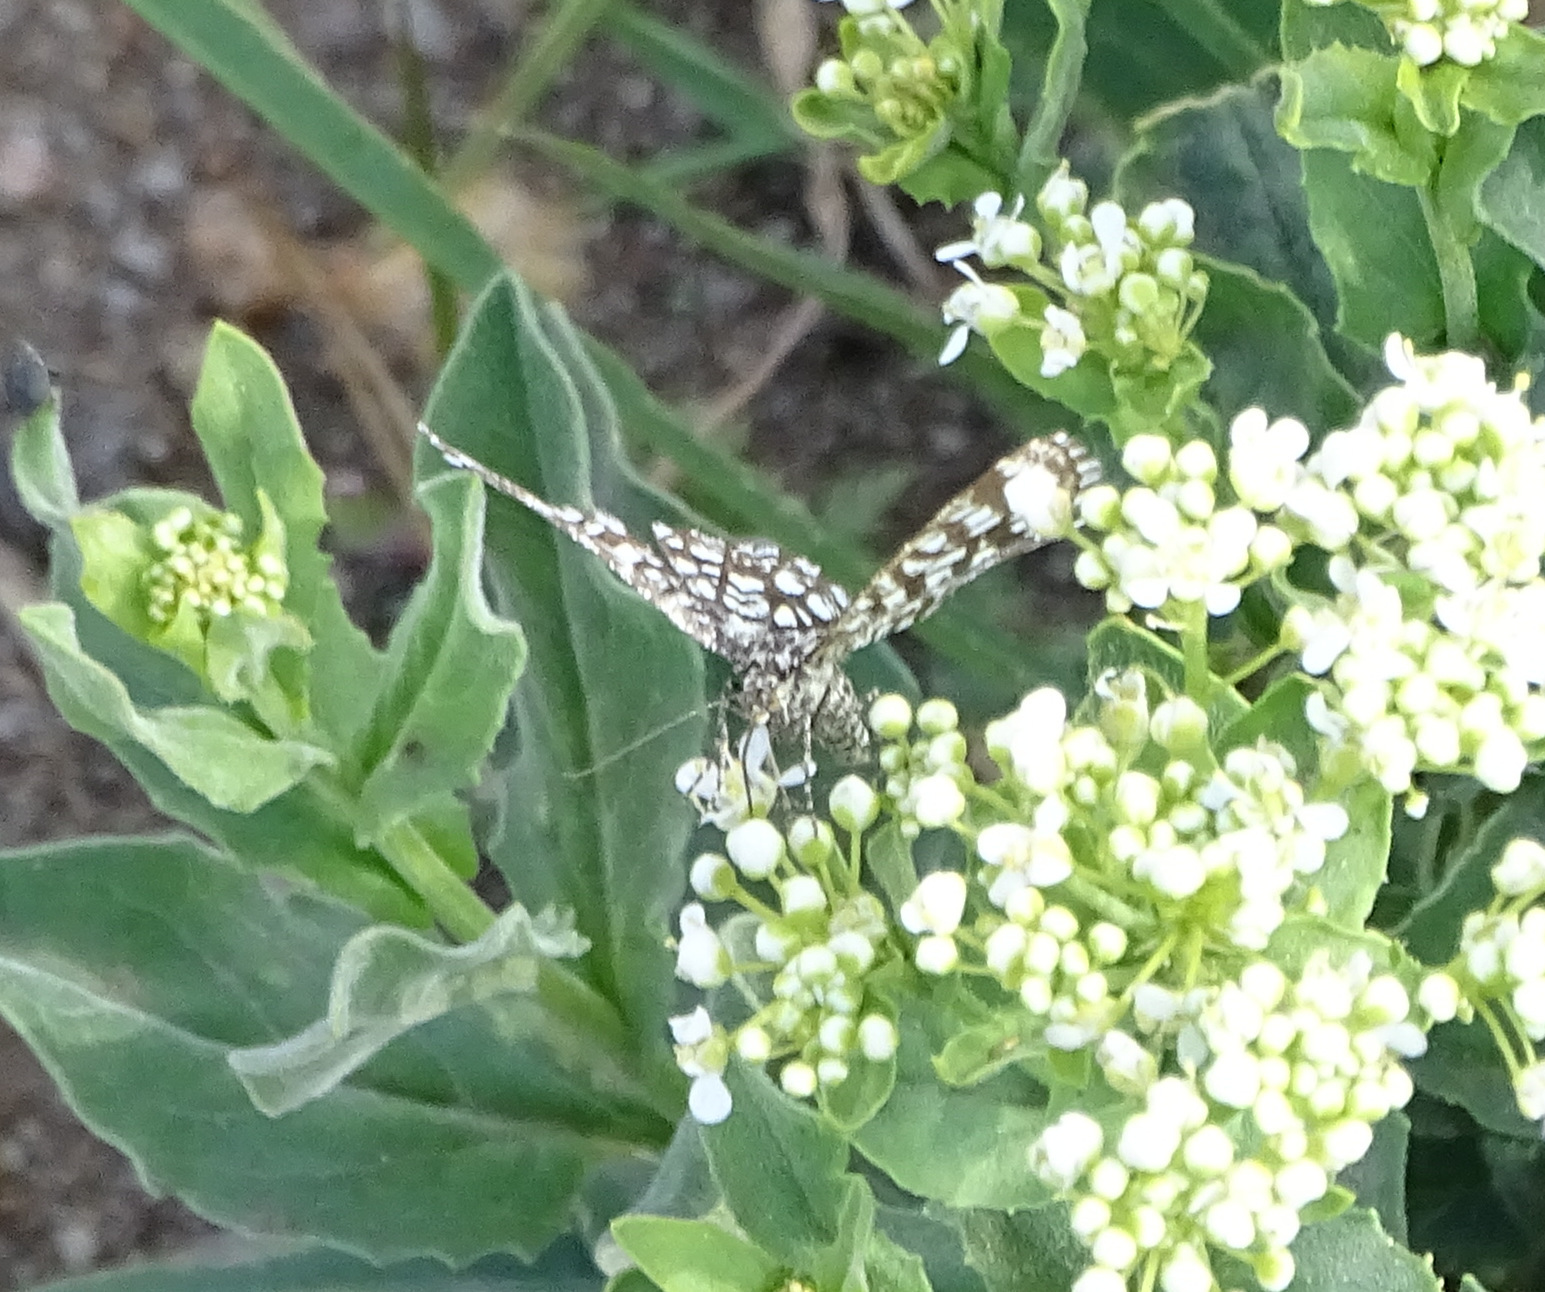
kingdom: Animalia
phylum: Arthropoda
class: Insecta
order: Lepidoptera
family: Geometridae
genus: Chiasmia
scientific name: Chiasmia clathrata
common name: Latticed heath
